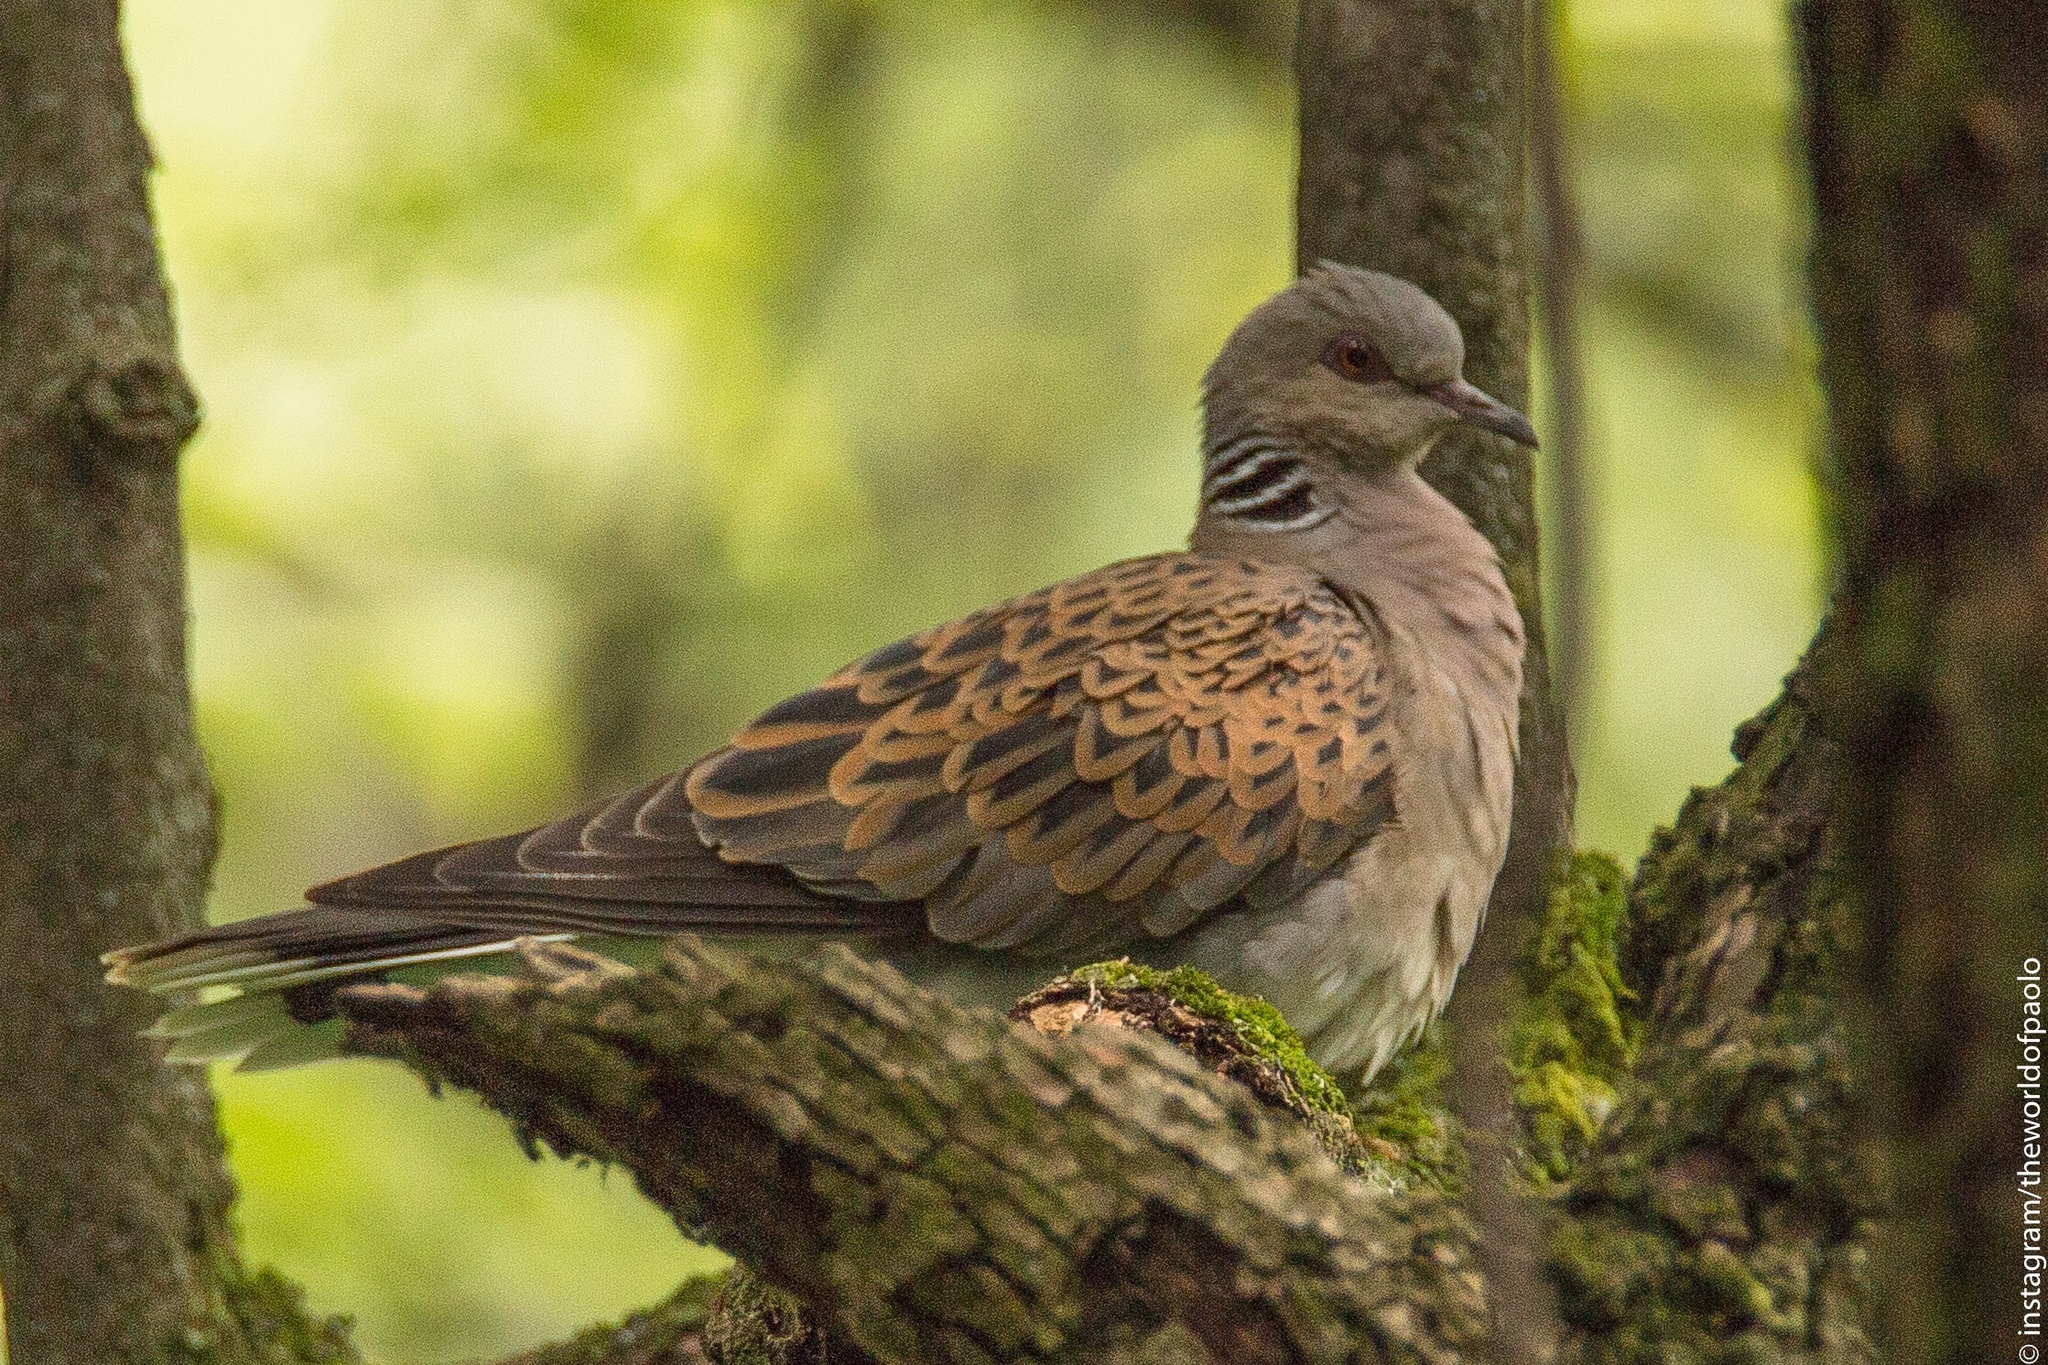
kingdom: Animalia
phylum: Chordata
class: Aves
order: Columbiformes
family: Columbidae
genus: Streptopelia
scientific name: Streptopelia turtur
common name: European turtle dove
